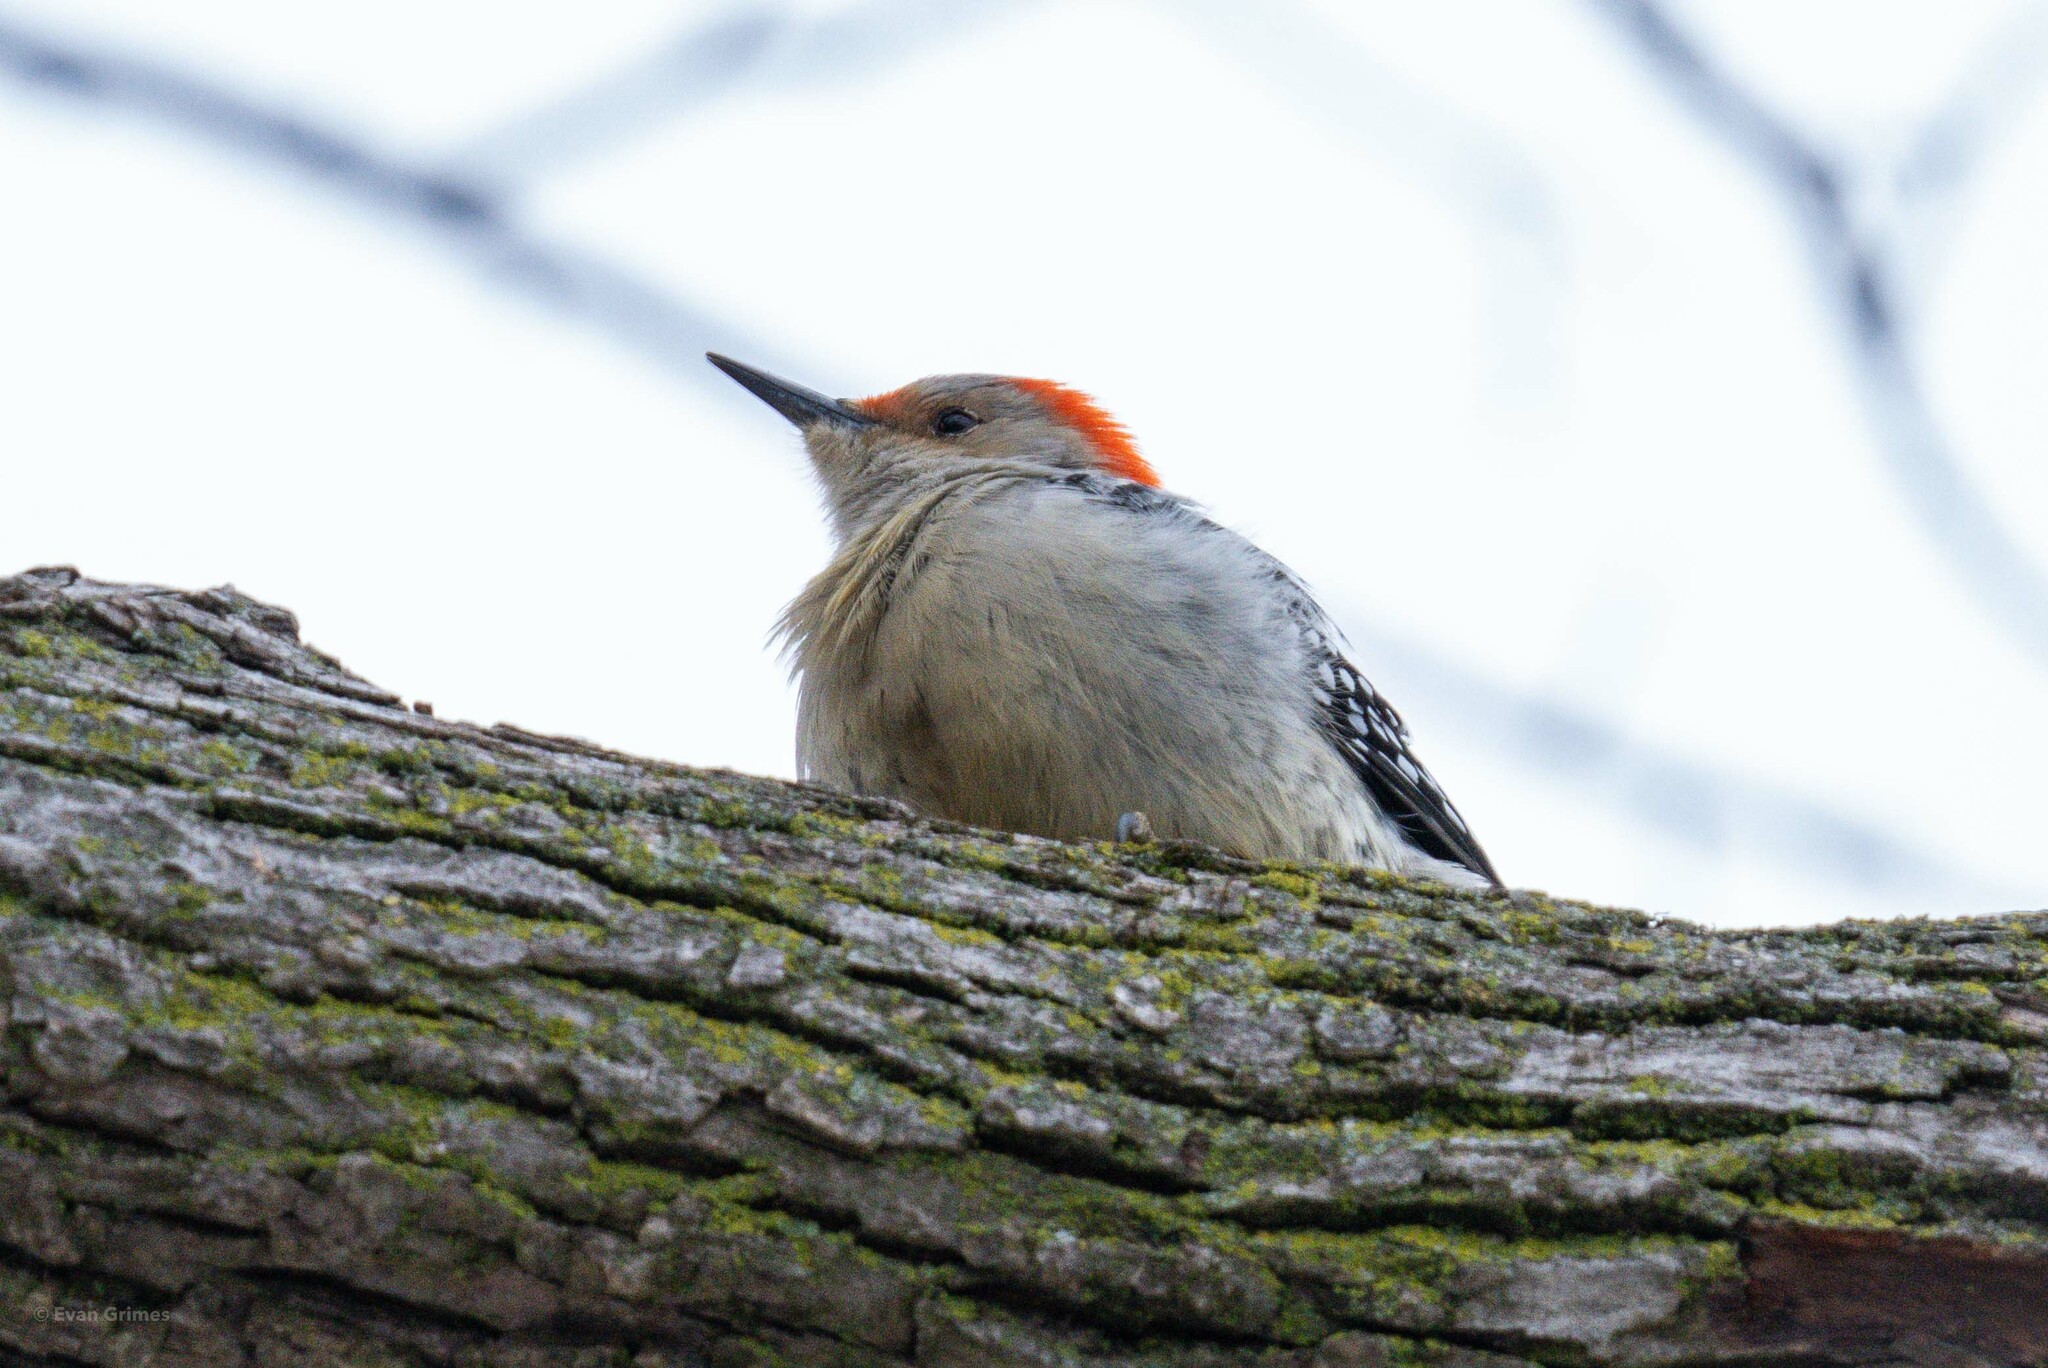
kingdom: Animalia
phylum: Chordata
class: Aves
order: Piciformes
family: Picidae
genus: Melanerpes
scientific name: Melanerpes carolinus
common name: Red-bellied woodpecker
